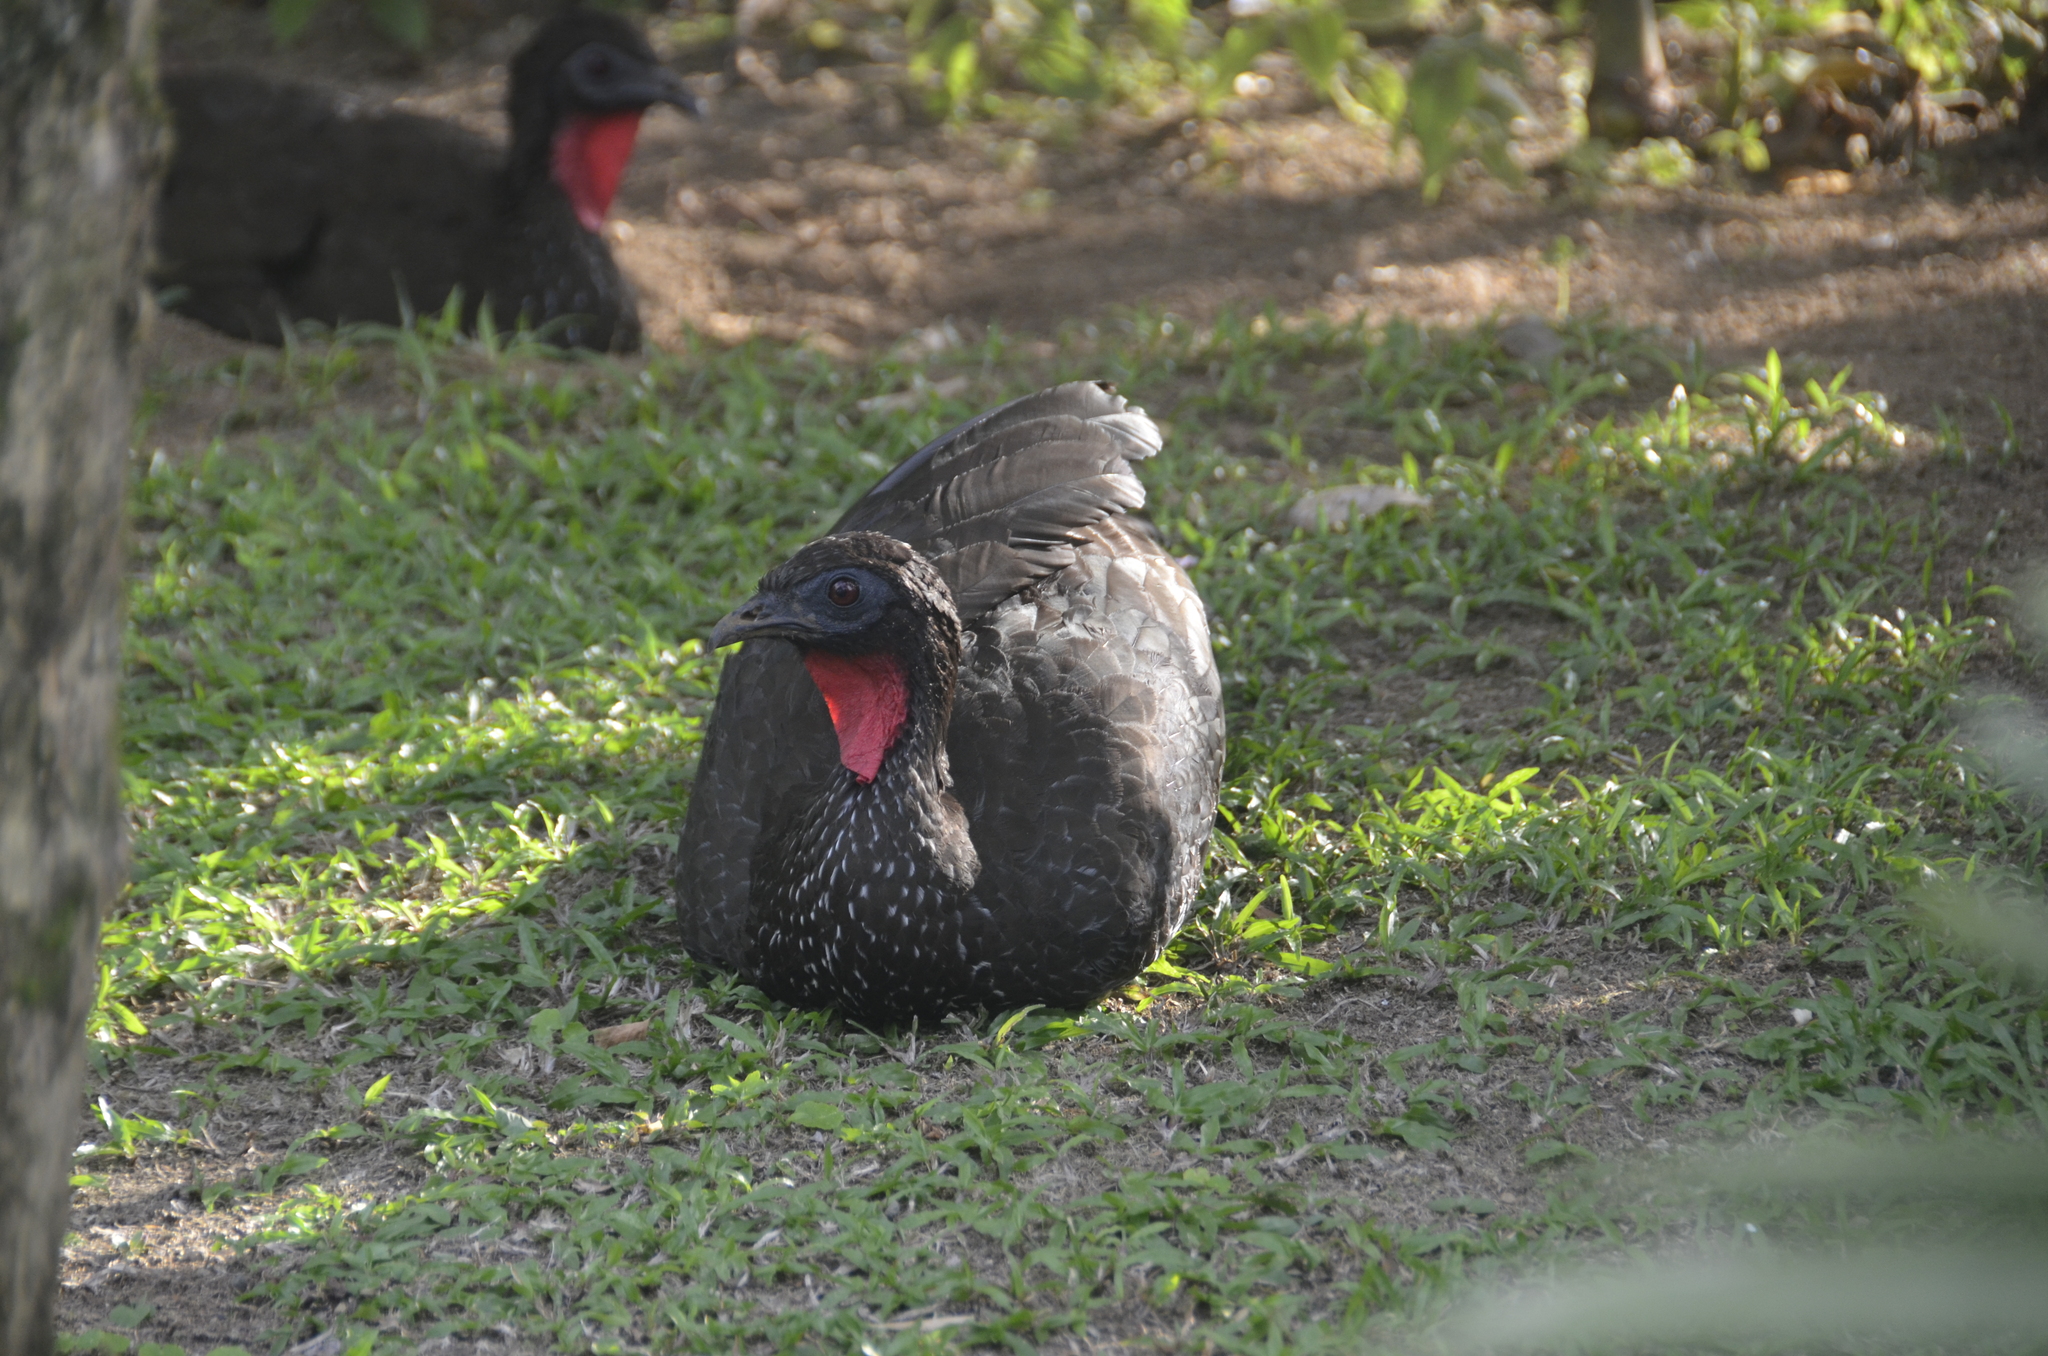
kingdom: Animalia
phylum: Chordata
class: Aves
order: Galliformes
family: Cracidae
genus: Penelope
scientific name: Penelope purpurascens
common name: Crested guan
